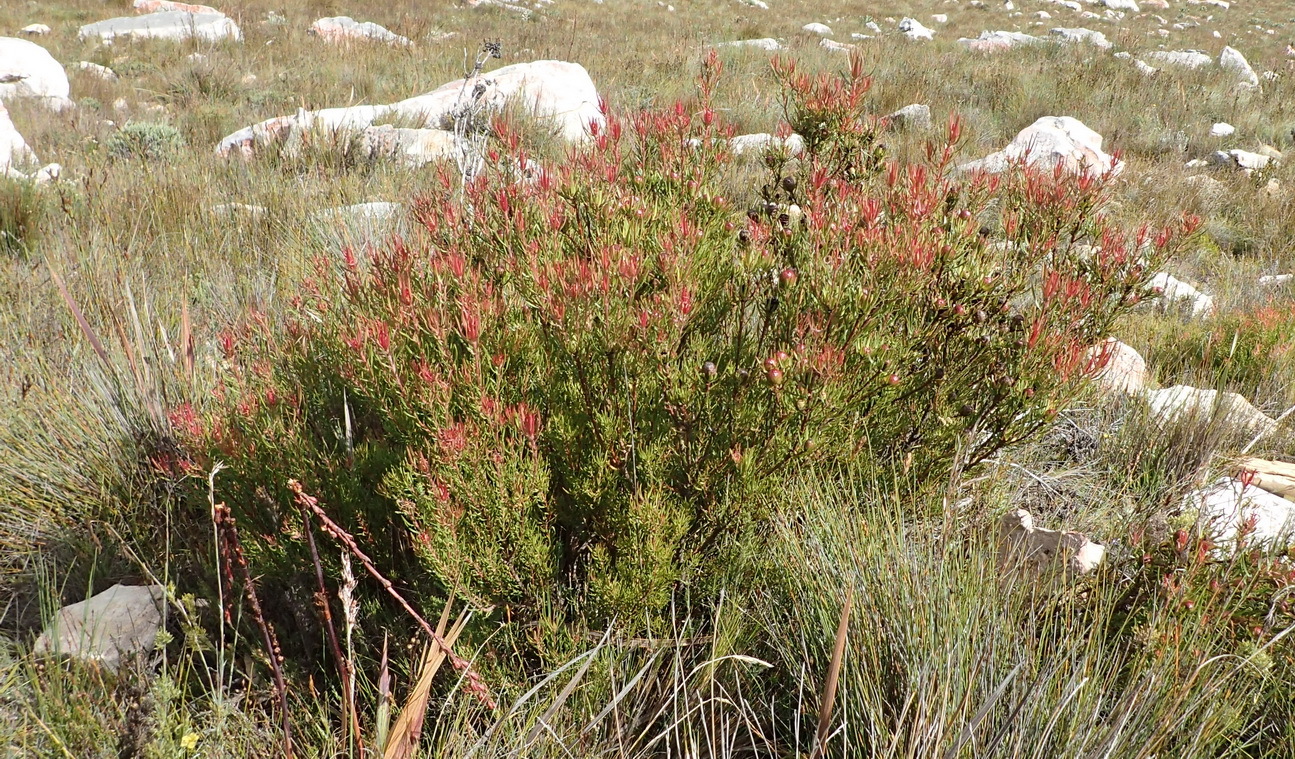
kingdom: Plantae
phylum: Tracheophyta
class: Magnoliopsida
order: Proteales
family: Proteaceae
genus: Leucadendron
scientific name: Leucadendron spissifolium
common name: Spear-leaf conebush
